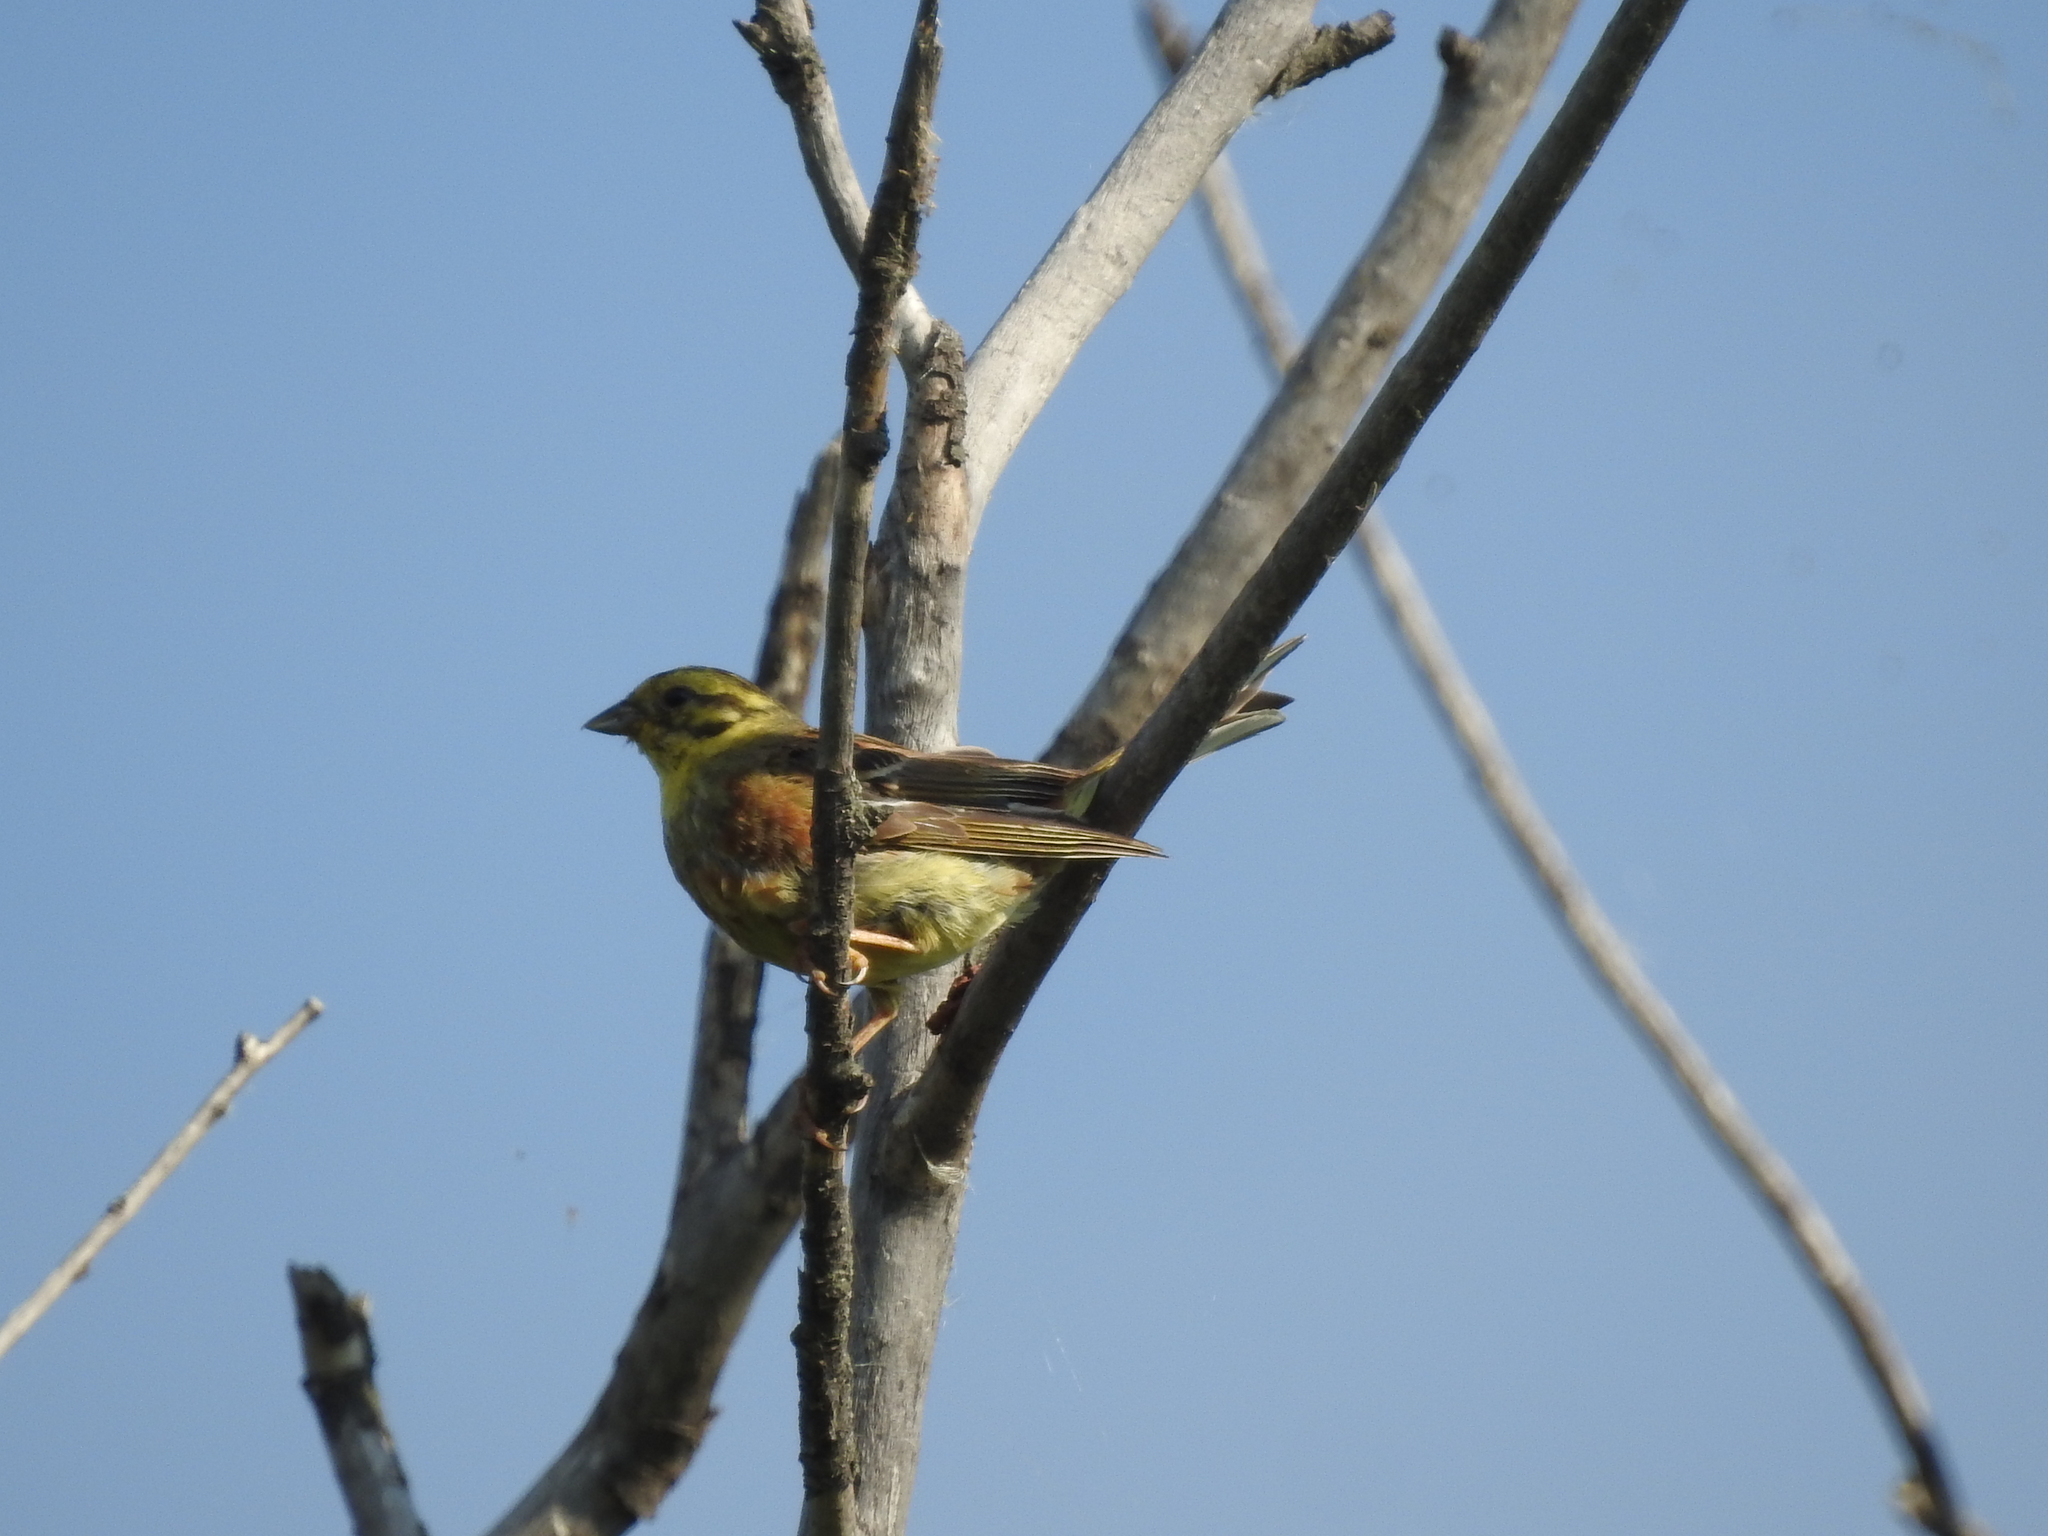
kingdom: Animalia
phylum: Chordata
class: Aves
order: Passeriformes
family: Emberizidae
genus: Emberiza
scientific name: Emberiza citrinella
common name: Yellowhammer
